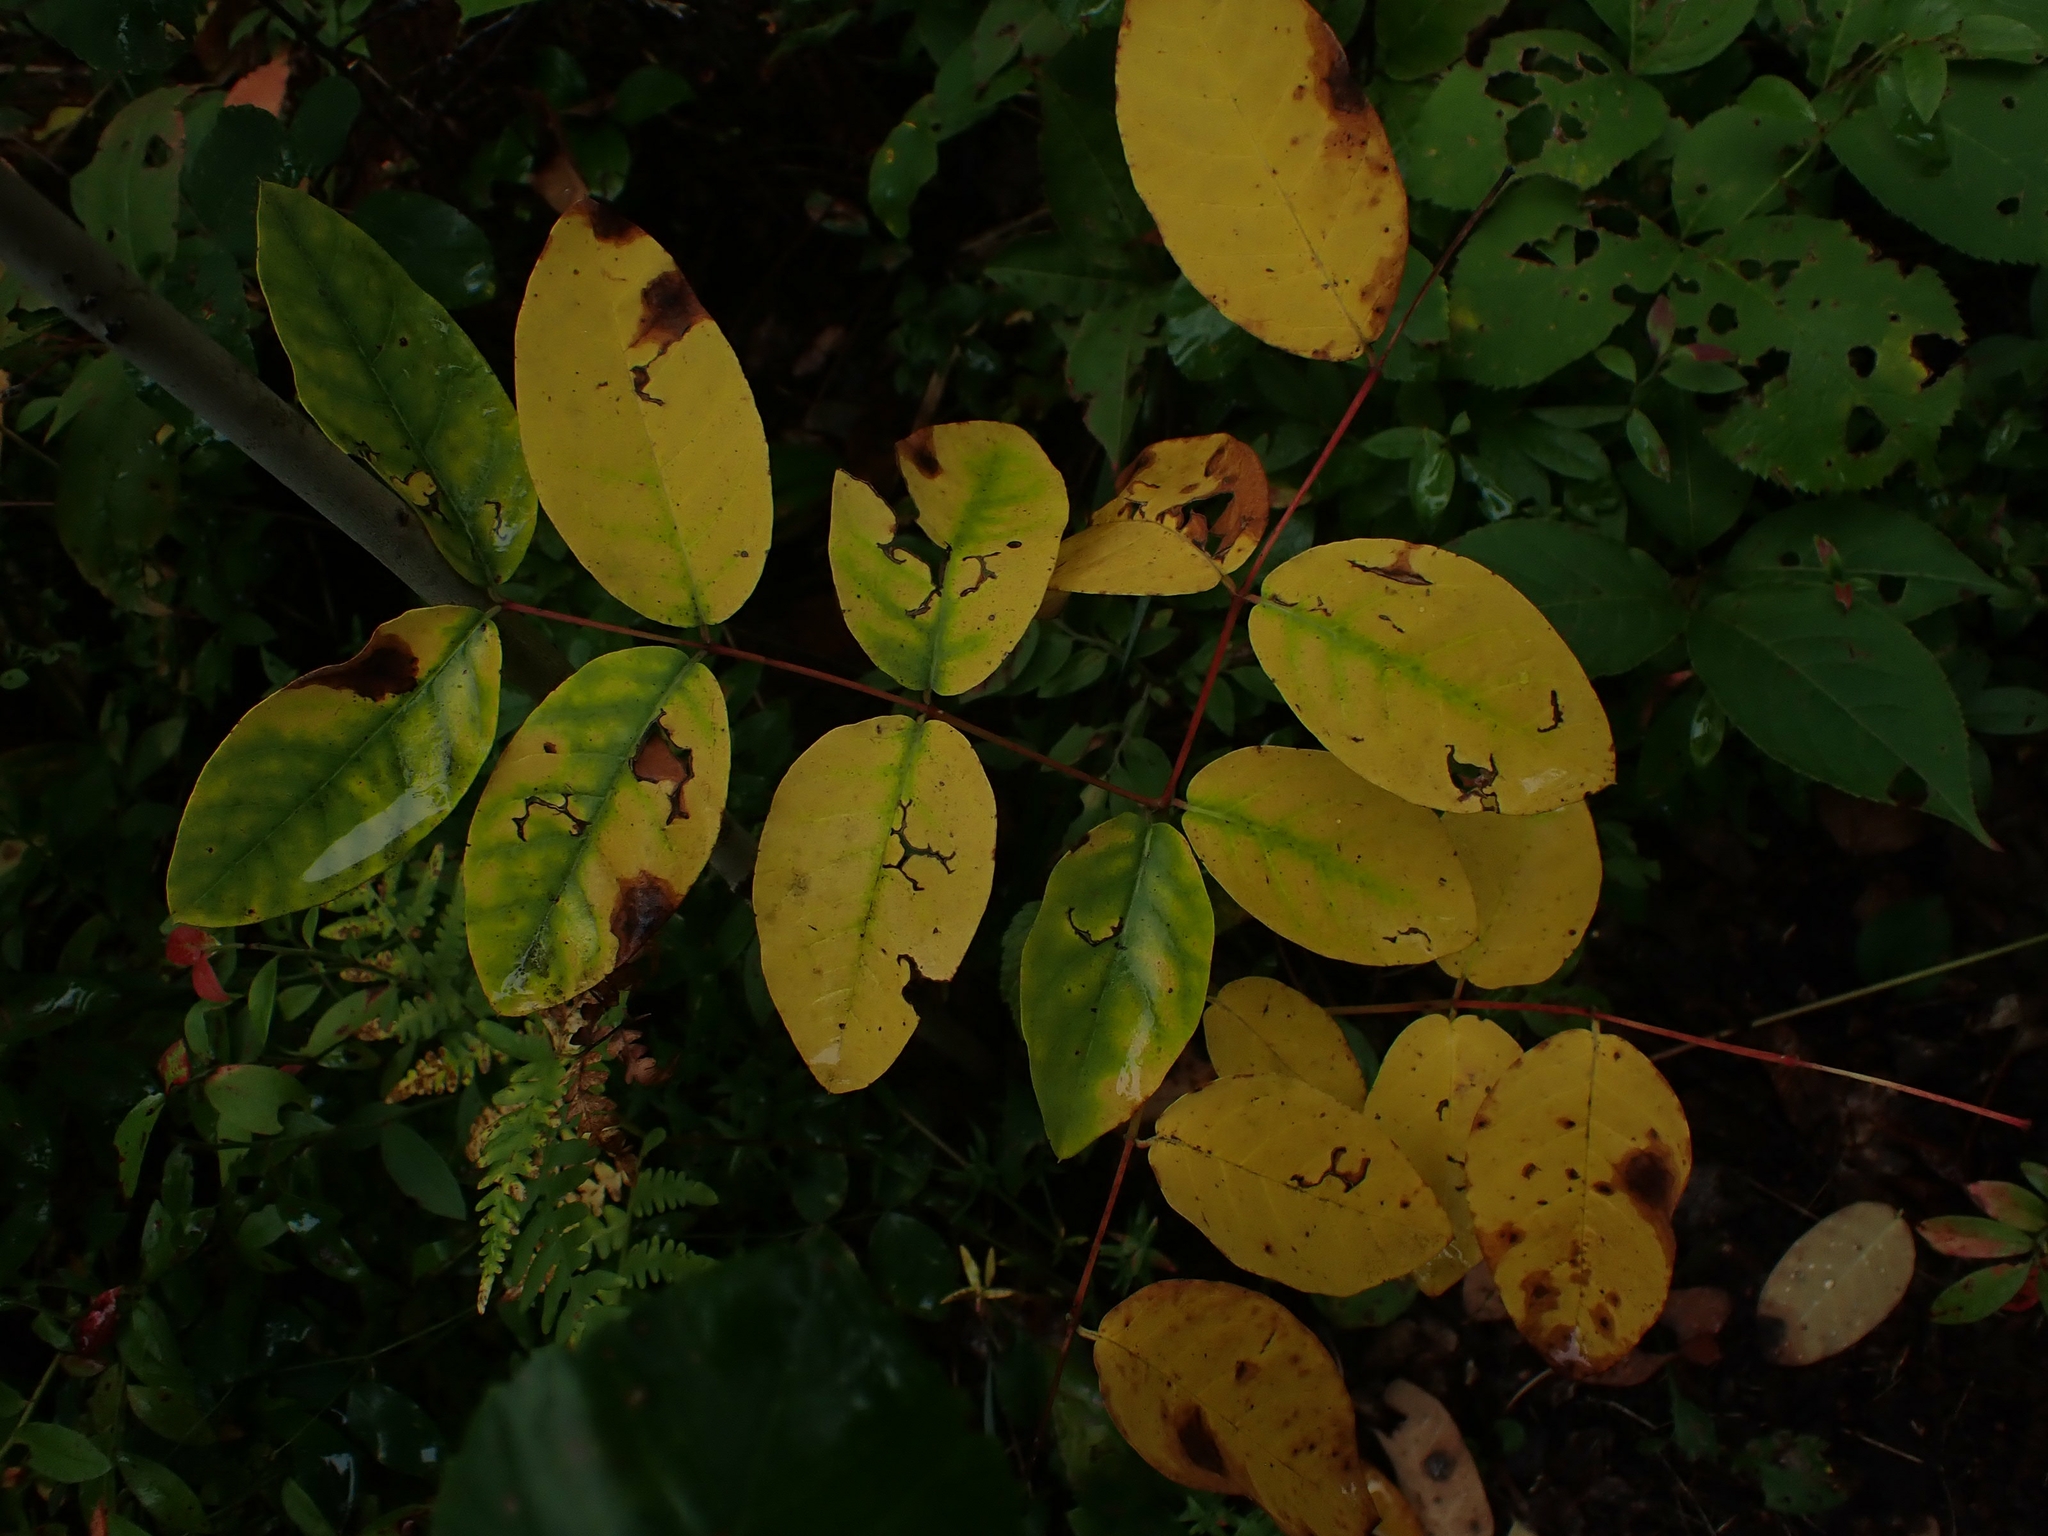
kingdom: Plantae
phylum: Tracheophyta
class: Magnoliopsida
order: Gentianales
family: Apocynaceae
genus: Apocynum
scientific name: Apocynum androsaemifolium
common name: Spreading dogbane
